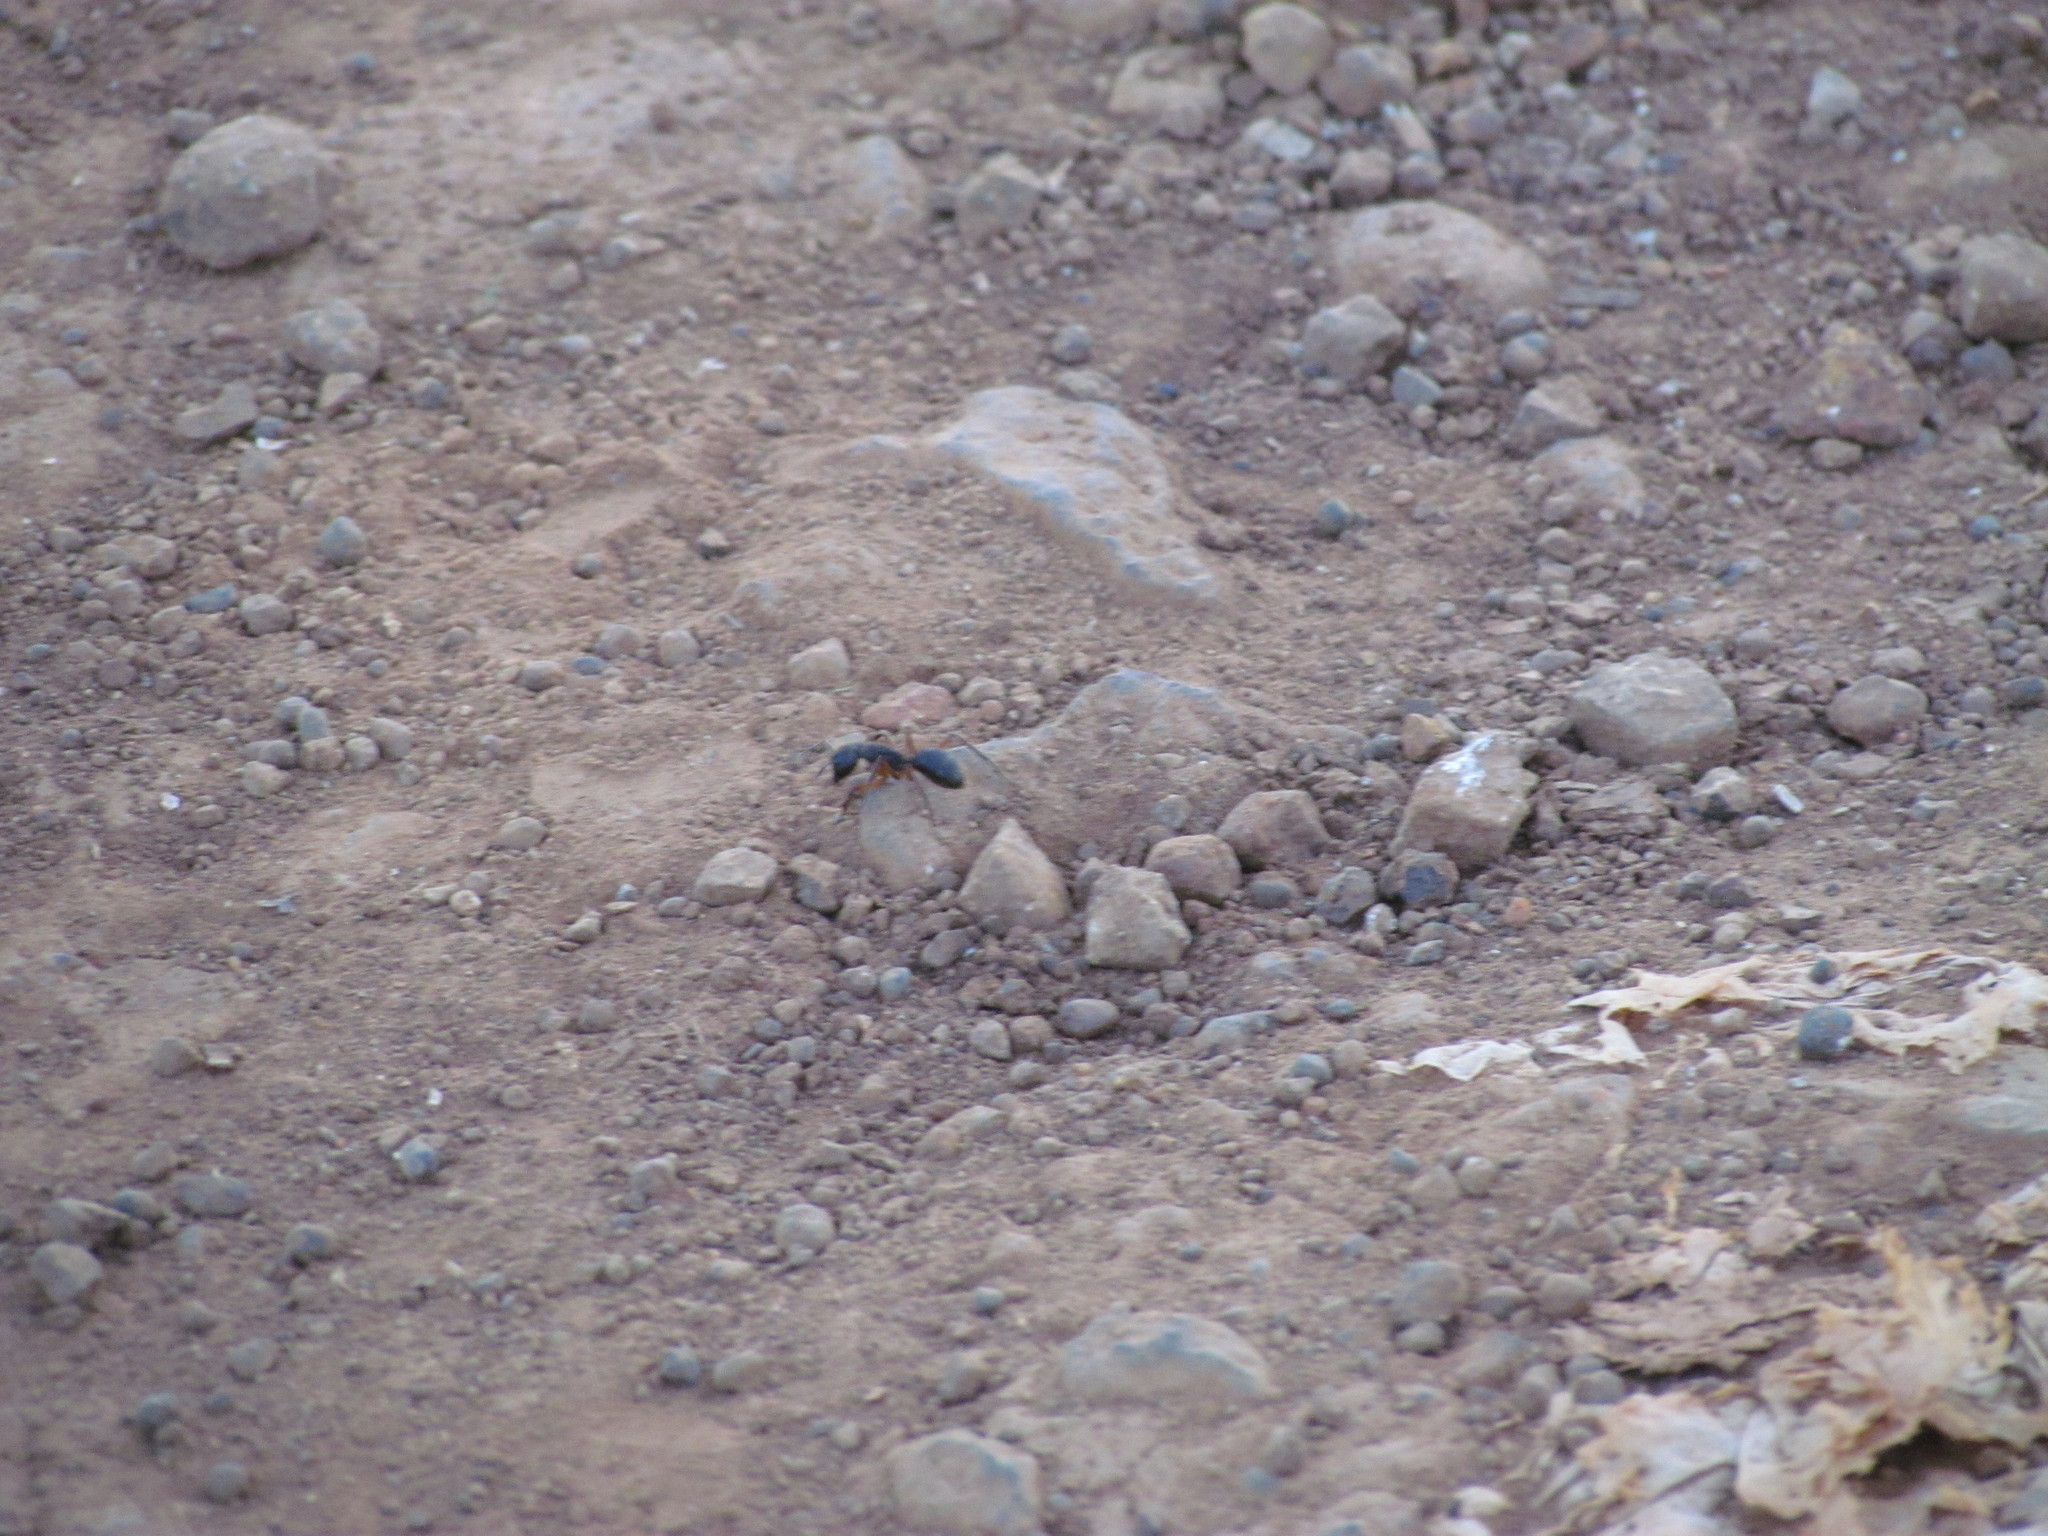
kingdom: Animalia
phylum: Arthropoda
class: Insecta
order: Hymenoptera
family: Formicidae
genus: Camponotus
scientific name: Camponotus rufipes
